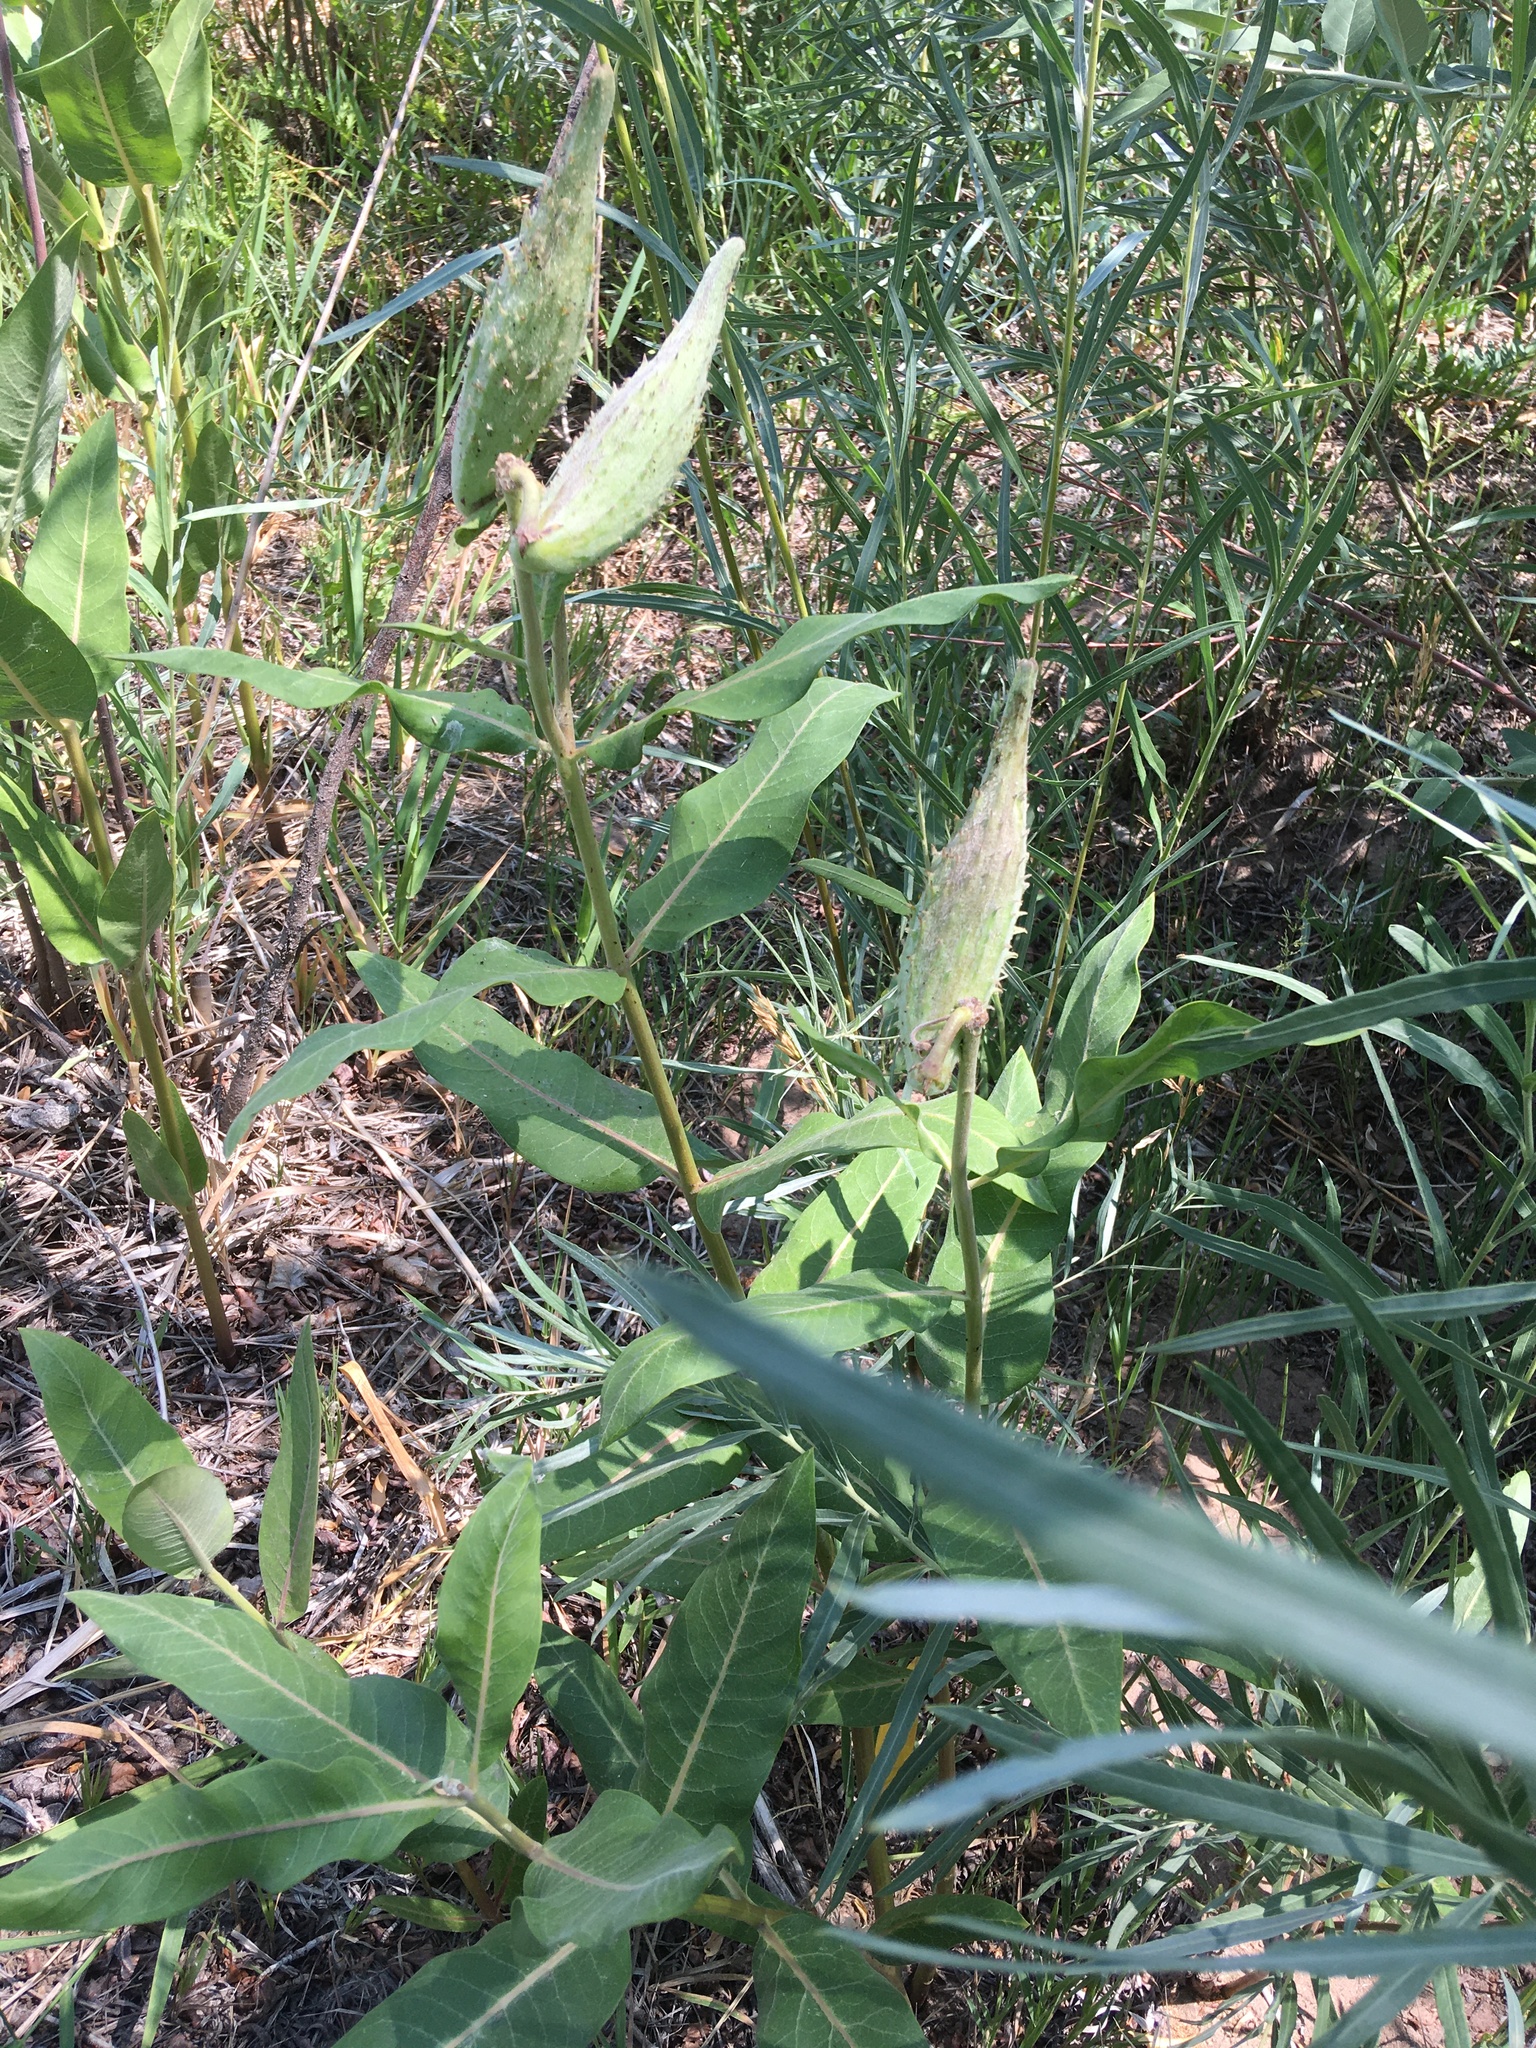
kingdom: Plantae
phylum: Tracheophyta
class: Magnoliopsida
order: Gentianales
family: Apocynaceae
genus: Asclepias
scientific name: Asclepias speciosa
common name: Showy milkweed
